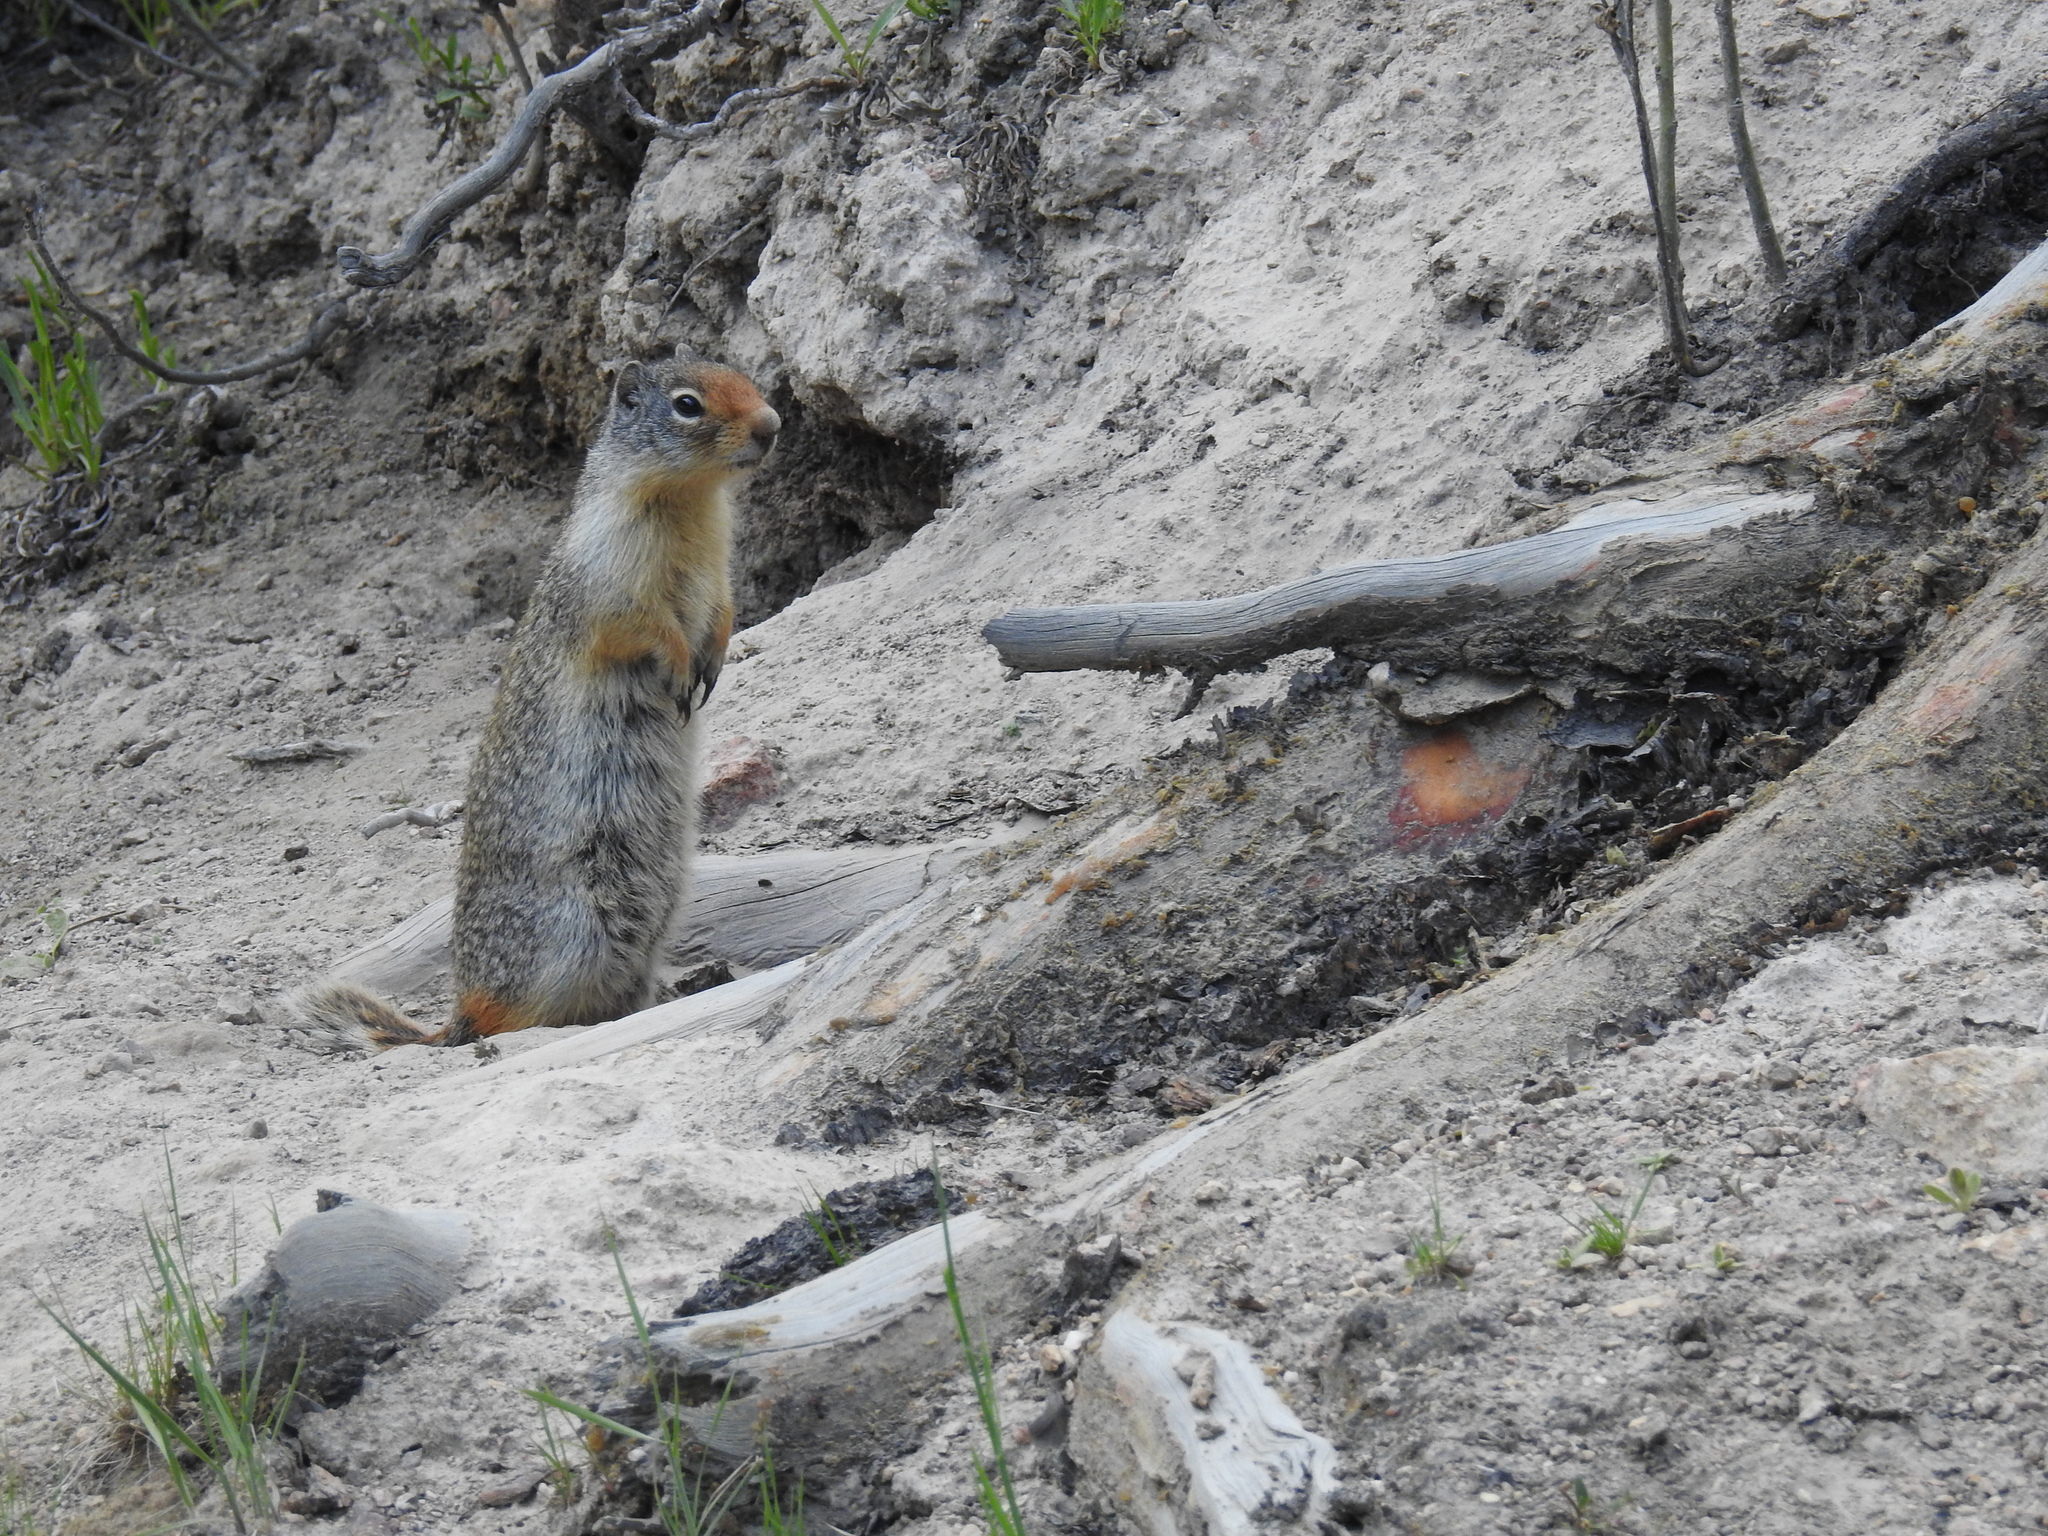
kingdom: Animalia
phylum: Chordata
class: Mammalia
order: Rodentia
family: Sciuridae
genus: Urocitellus
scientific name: Urocitellus columbianus
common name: Columbian ground squirrel
